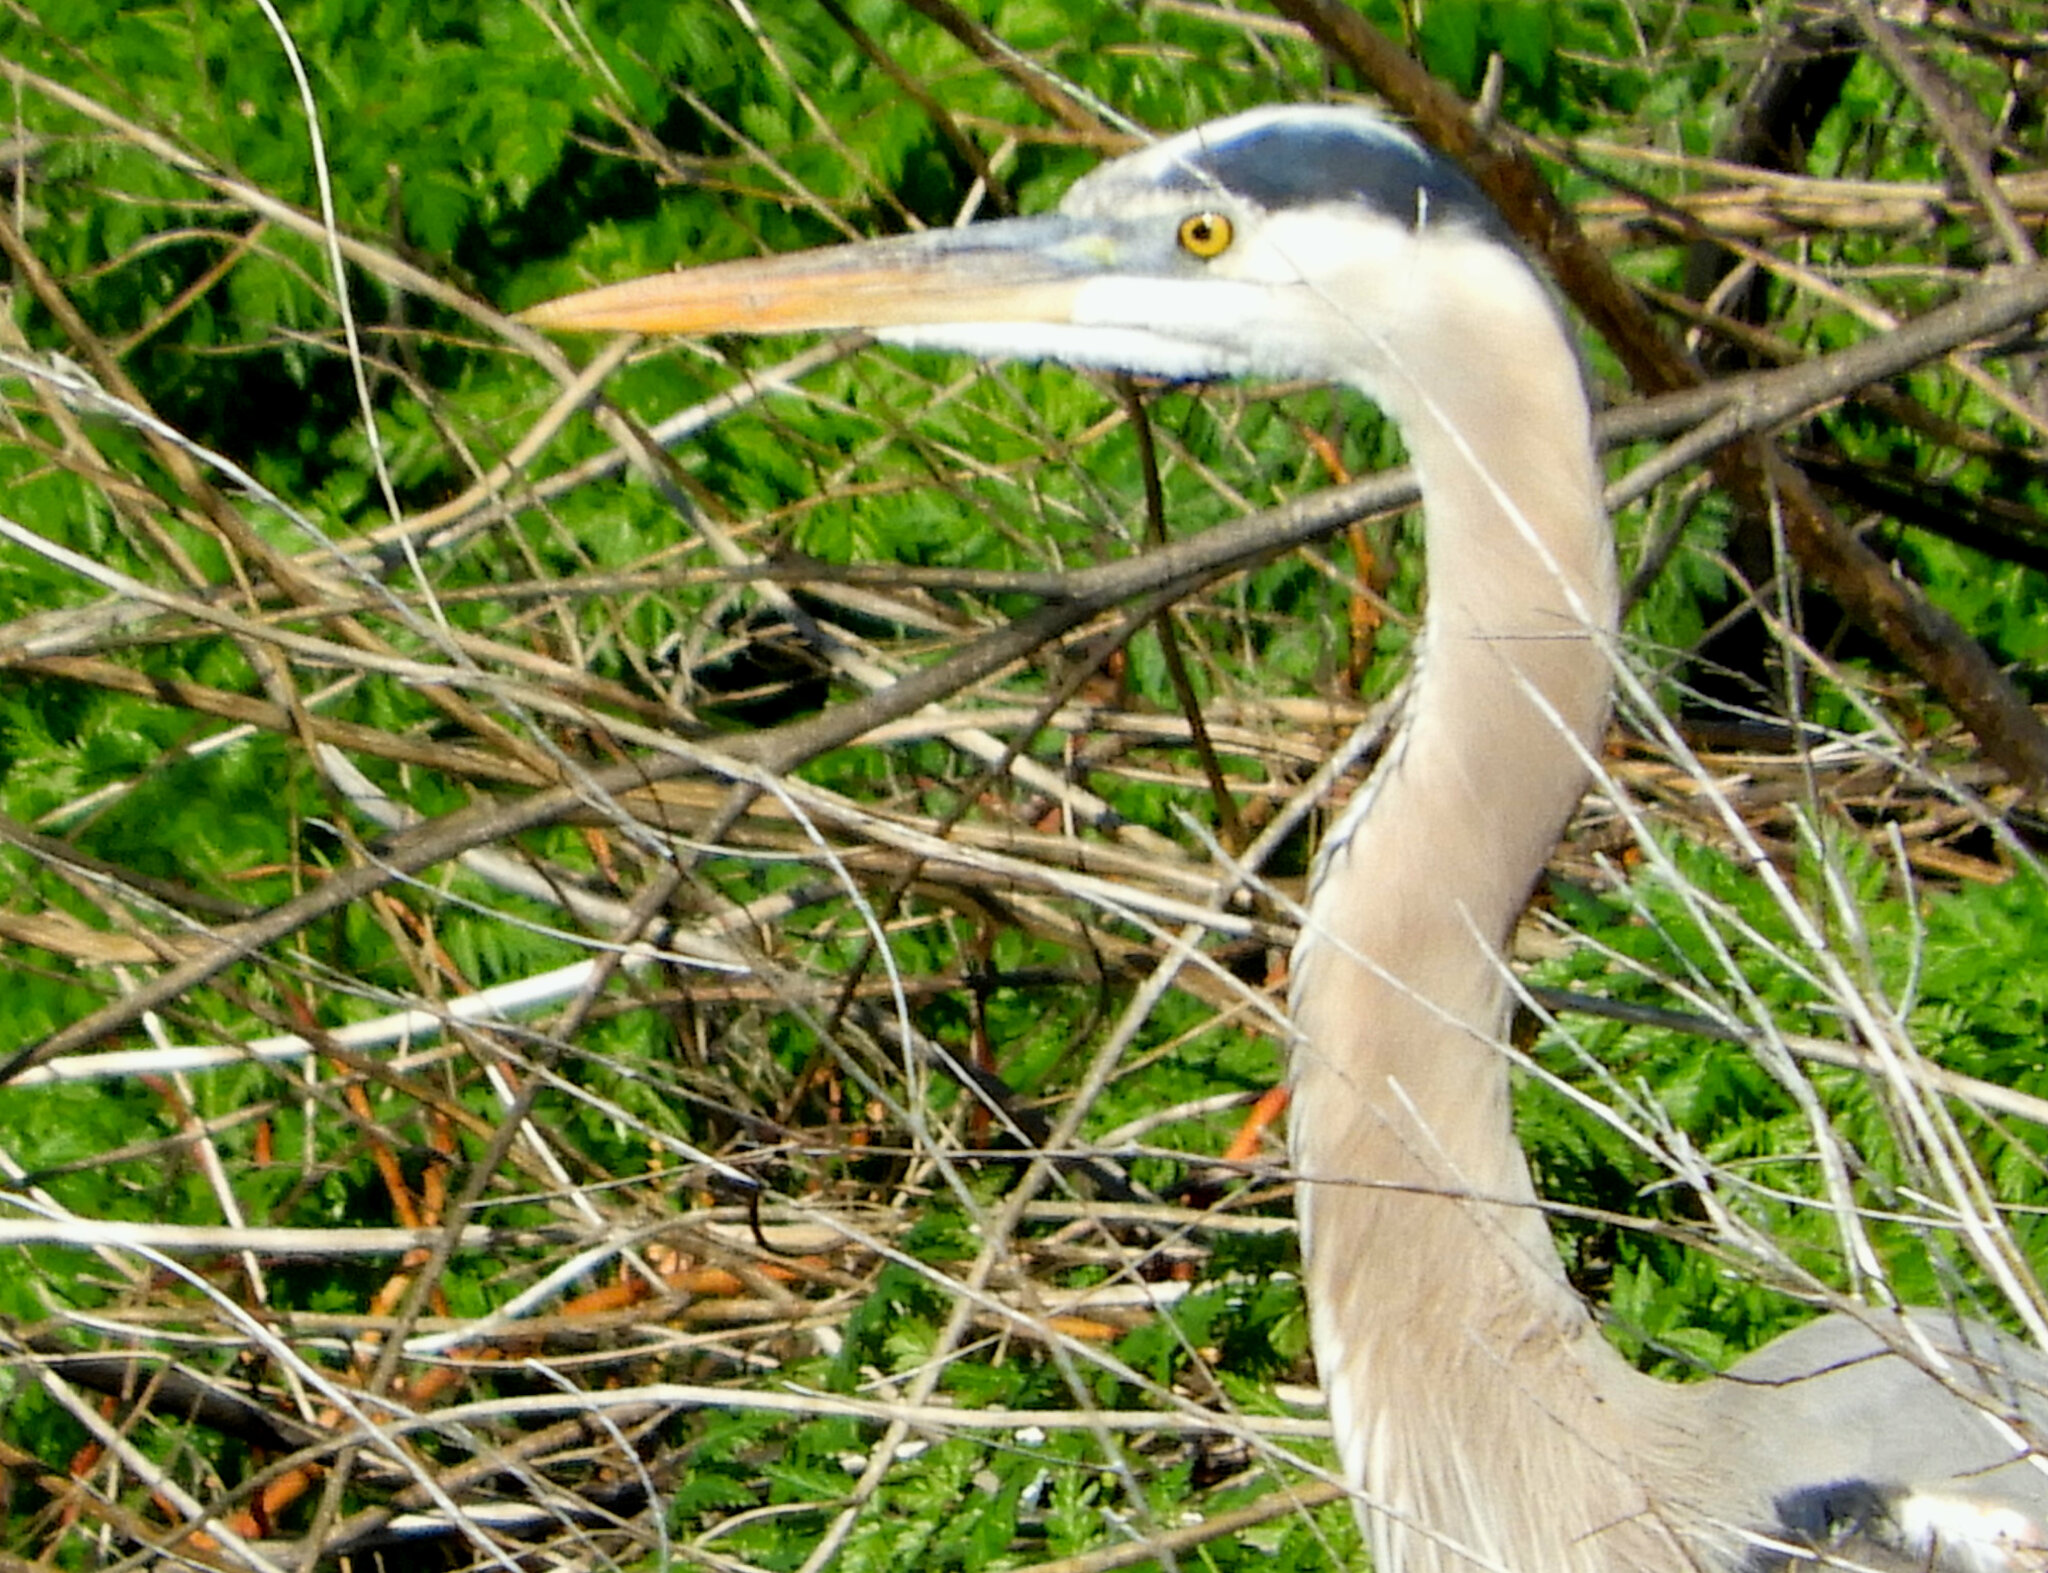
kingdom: Animalia
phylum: Chordata
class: Aves
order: Pelecaniformes
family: Ardeidae
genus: Ardea
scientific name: Ardea herodias
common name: Great blue heron
